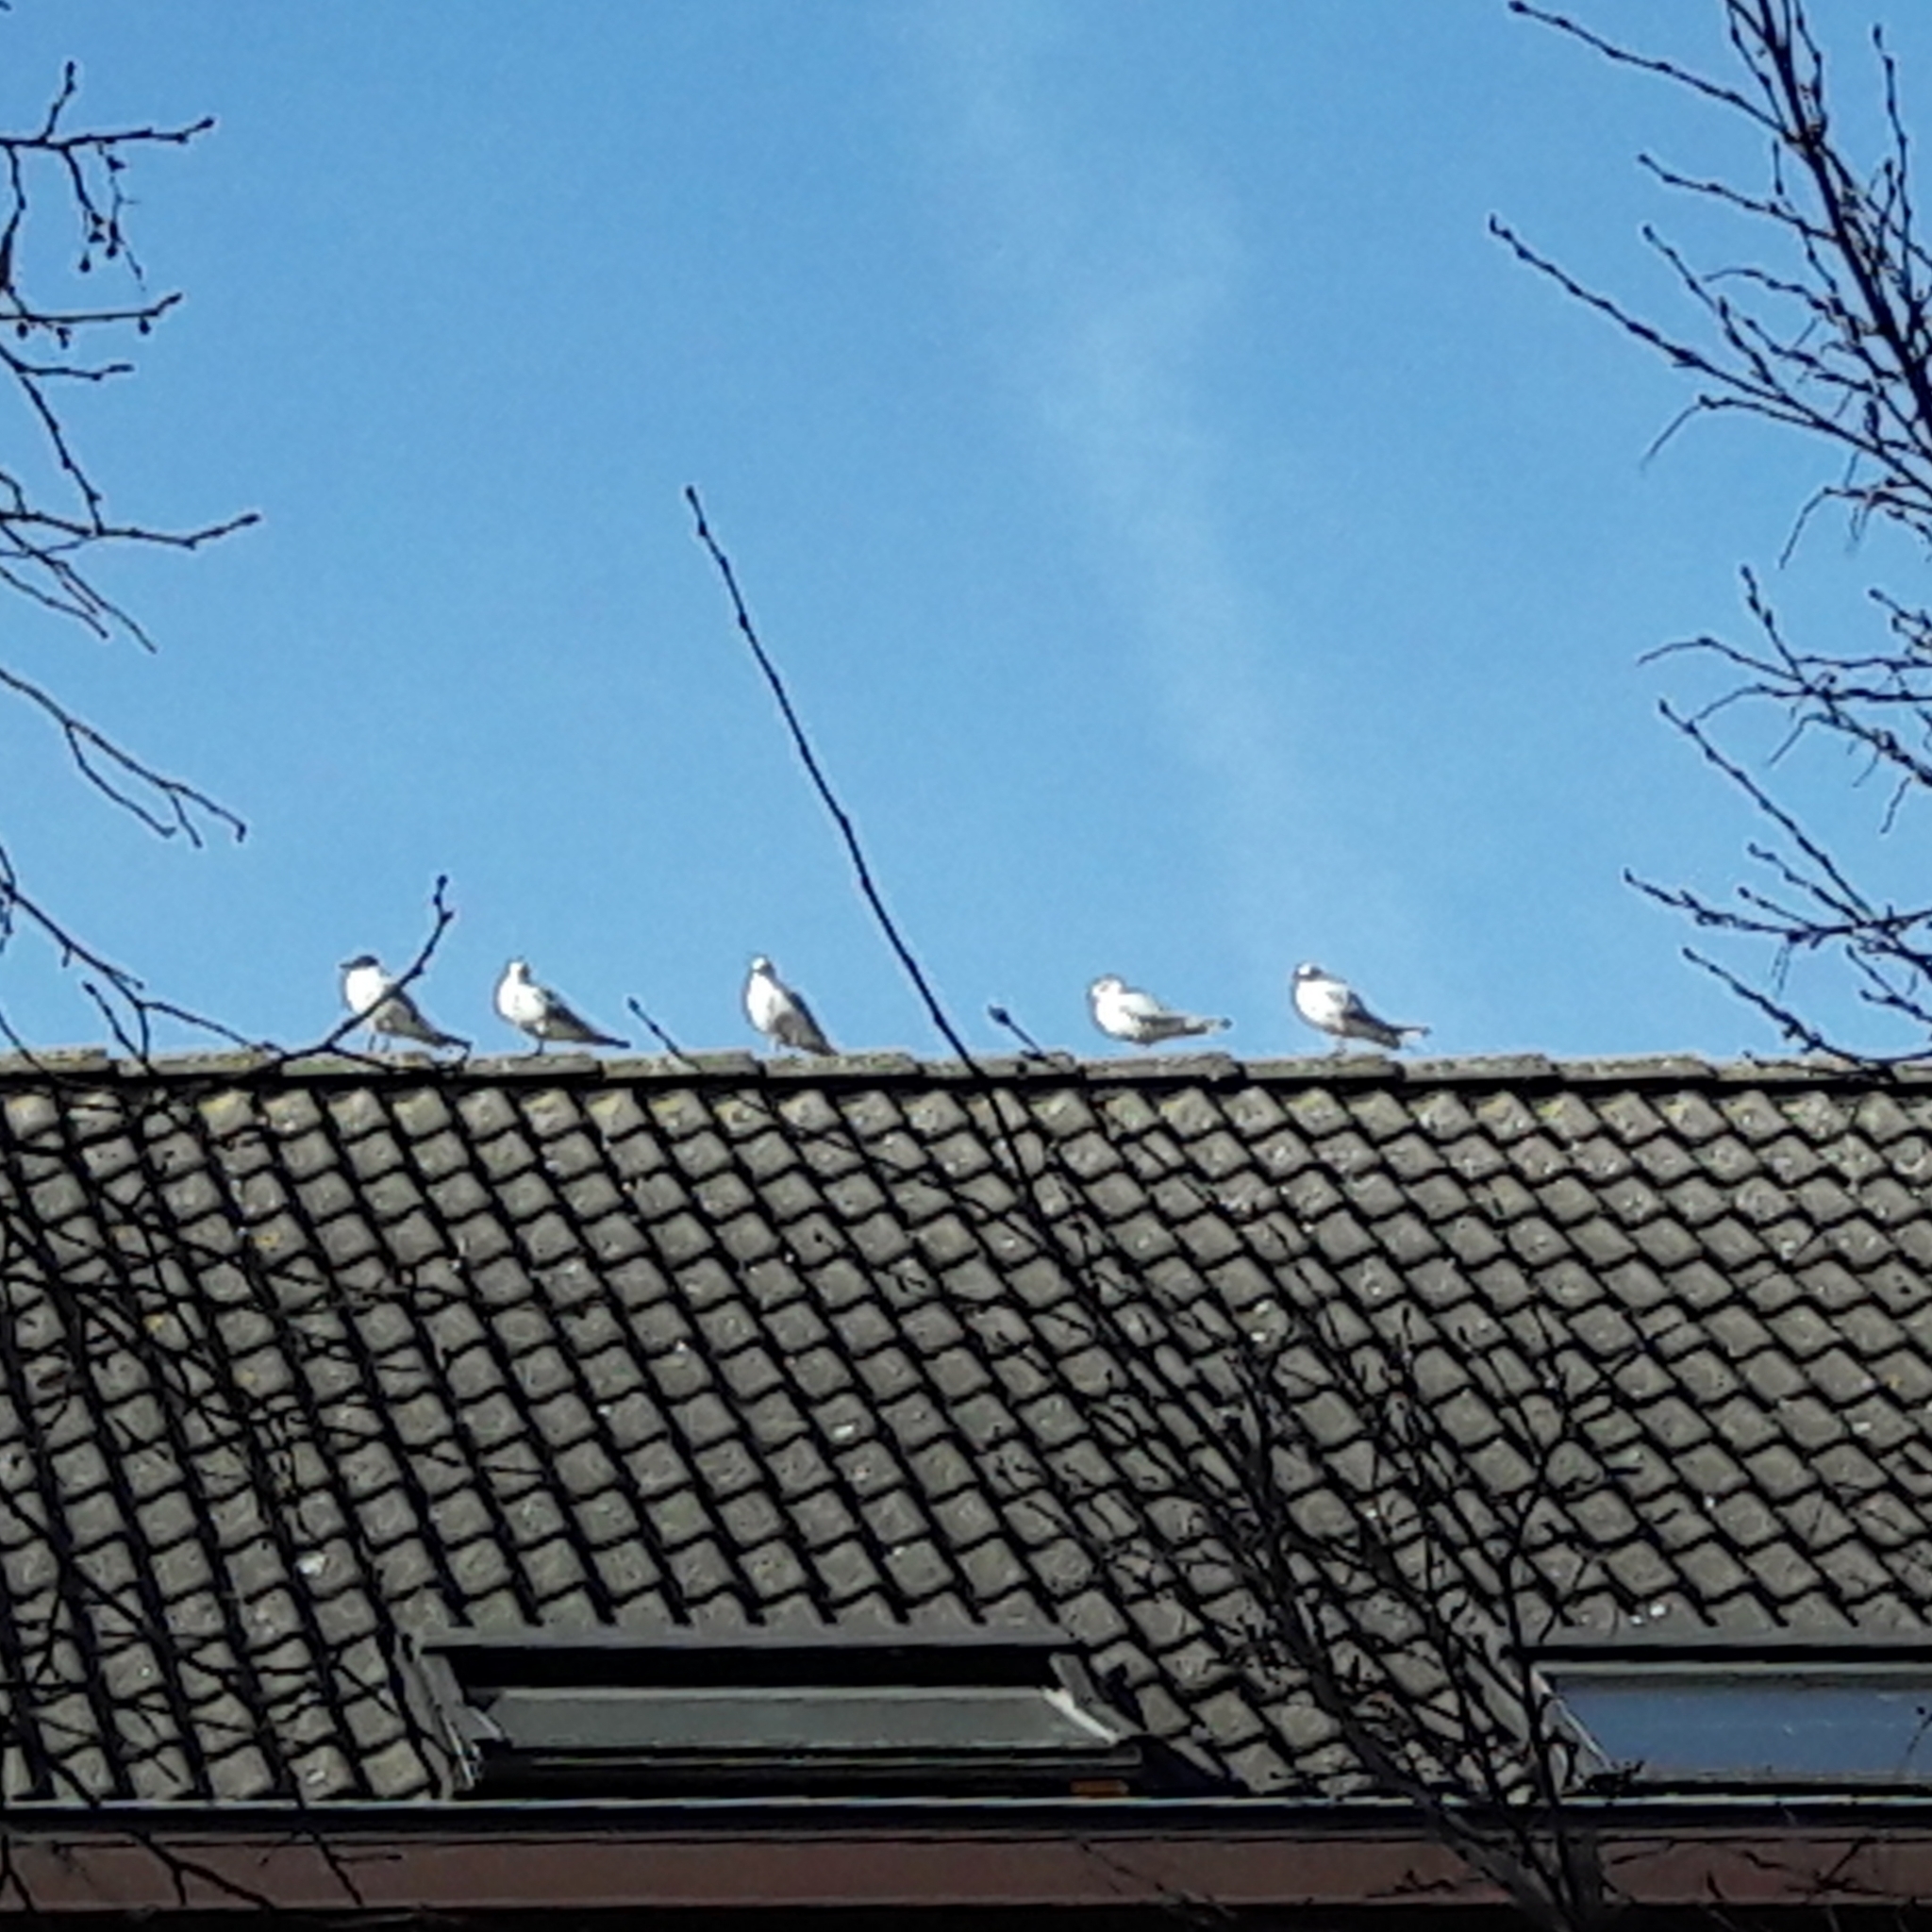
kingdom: Animalia
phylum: Chordata
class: Aves
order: Charadriiformes
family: Laridae
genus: Chroicocephalus
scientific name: Chroicocephalus ridibundus
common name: Black-headed gull
